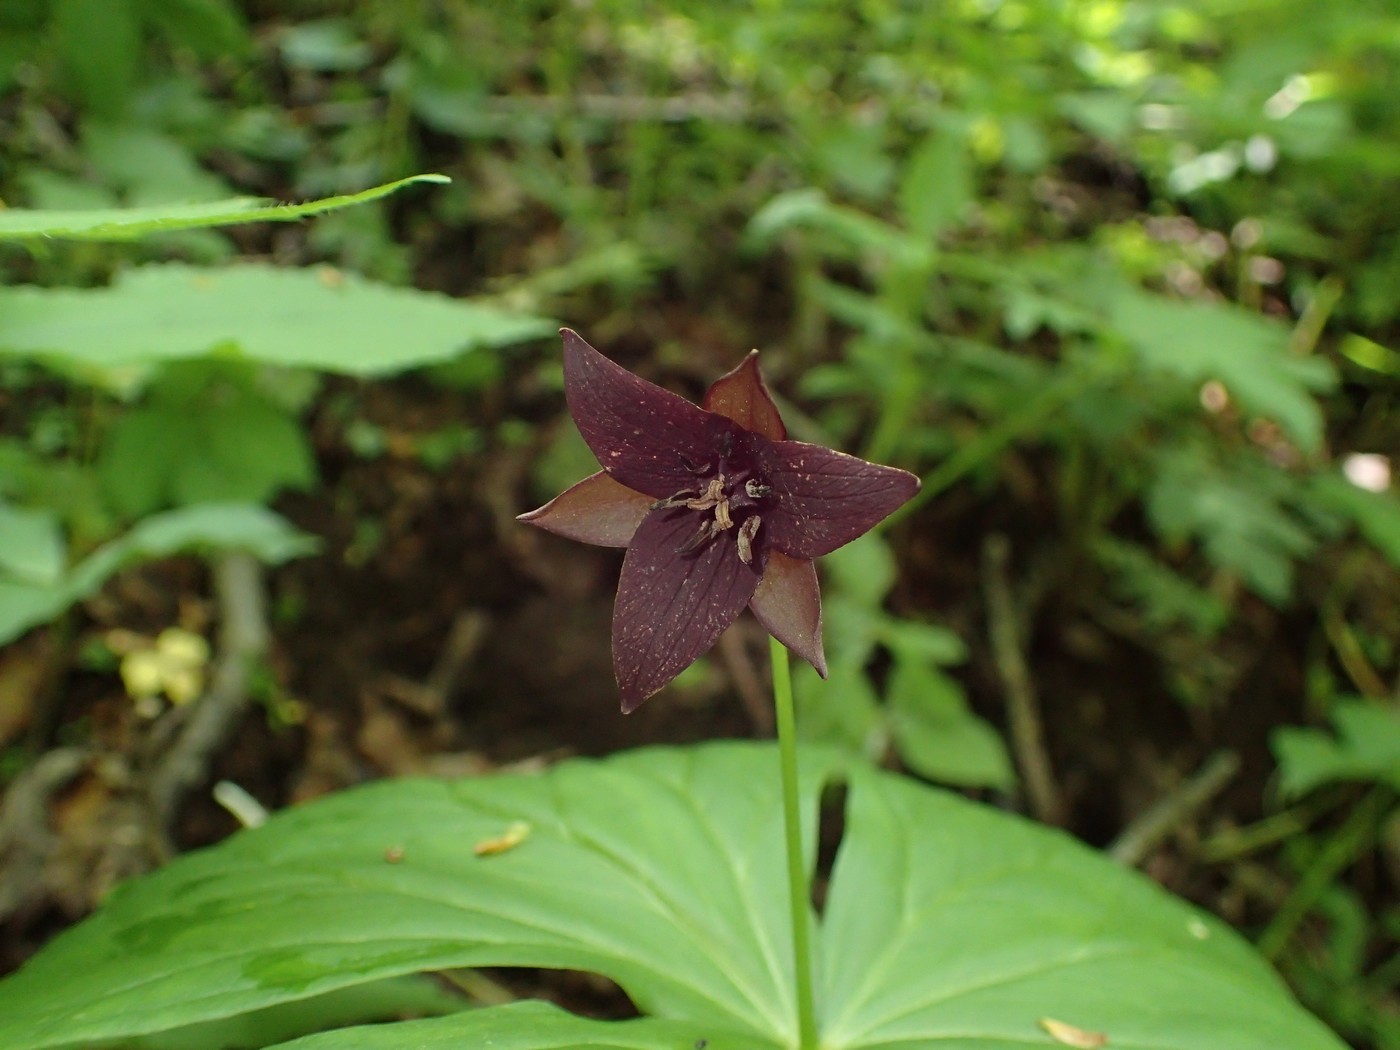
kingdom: Plantae
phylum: Tracheophyta
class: Liliopsida
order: Liliales
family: Melanthiaceae
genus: Trillium
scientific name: Trillium sulcatum
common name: Barksdale trillium
